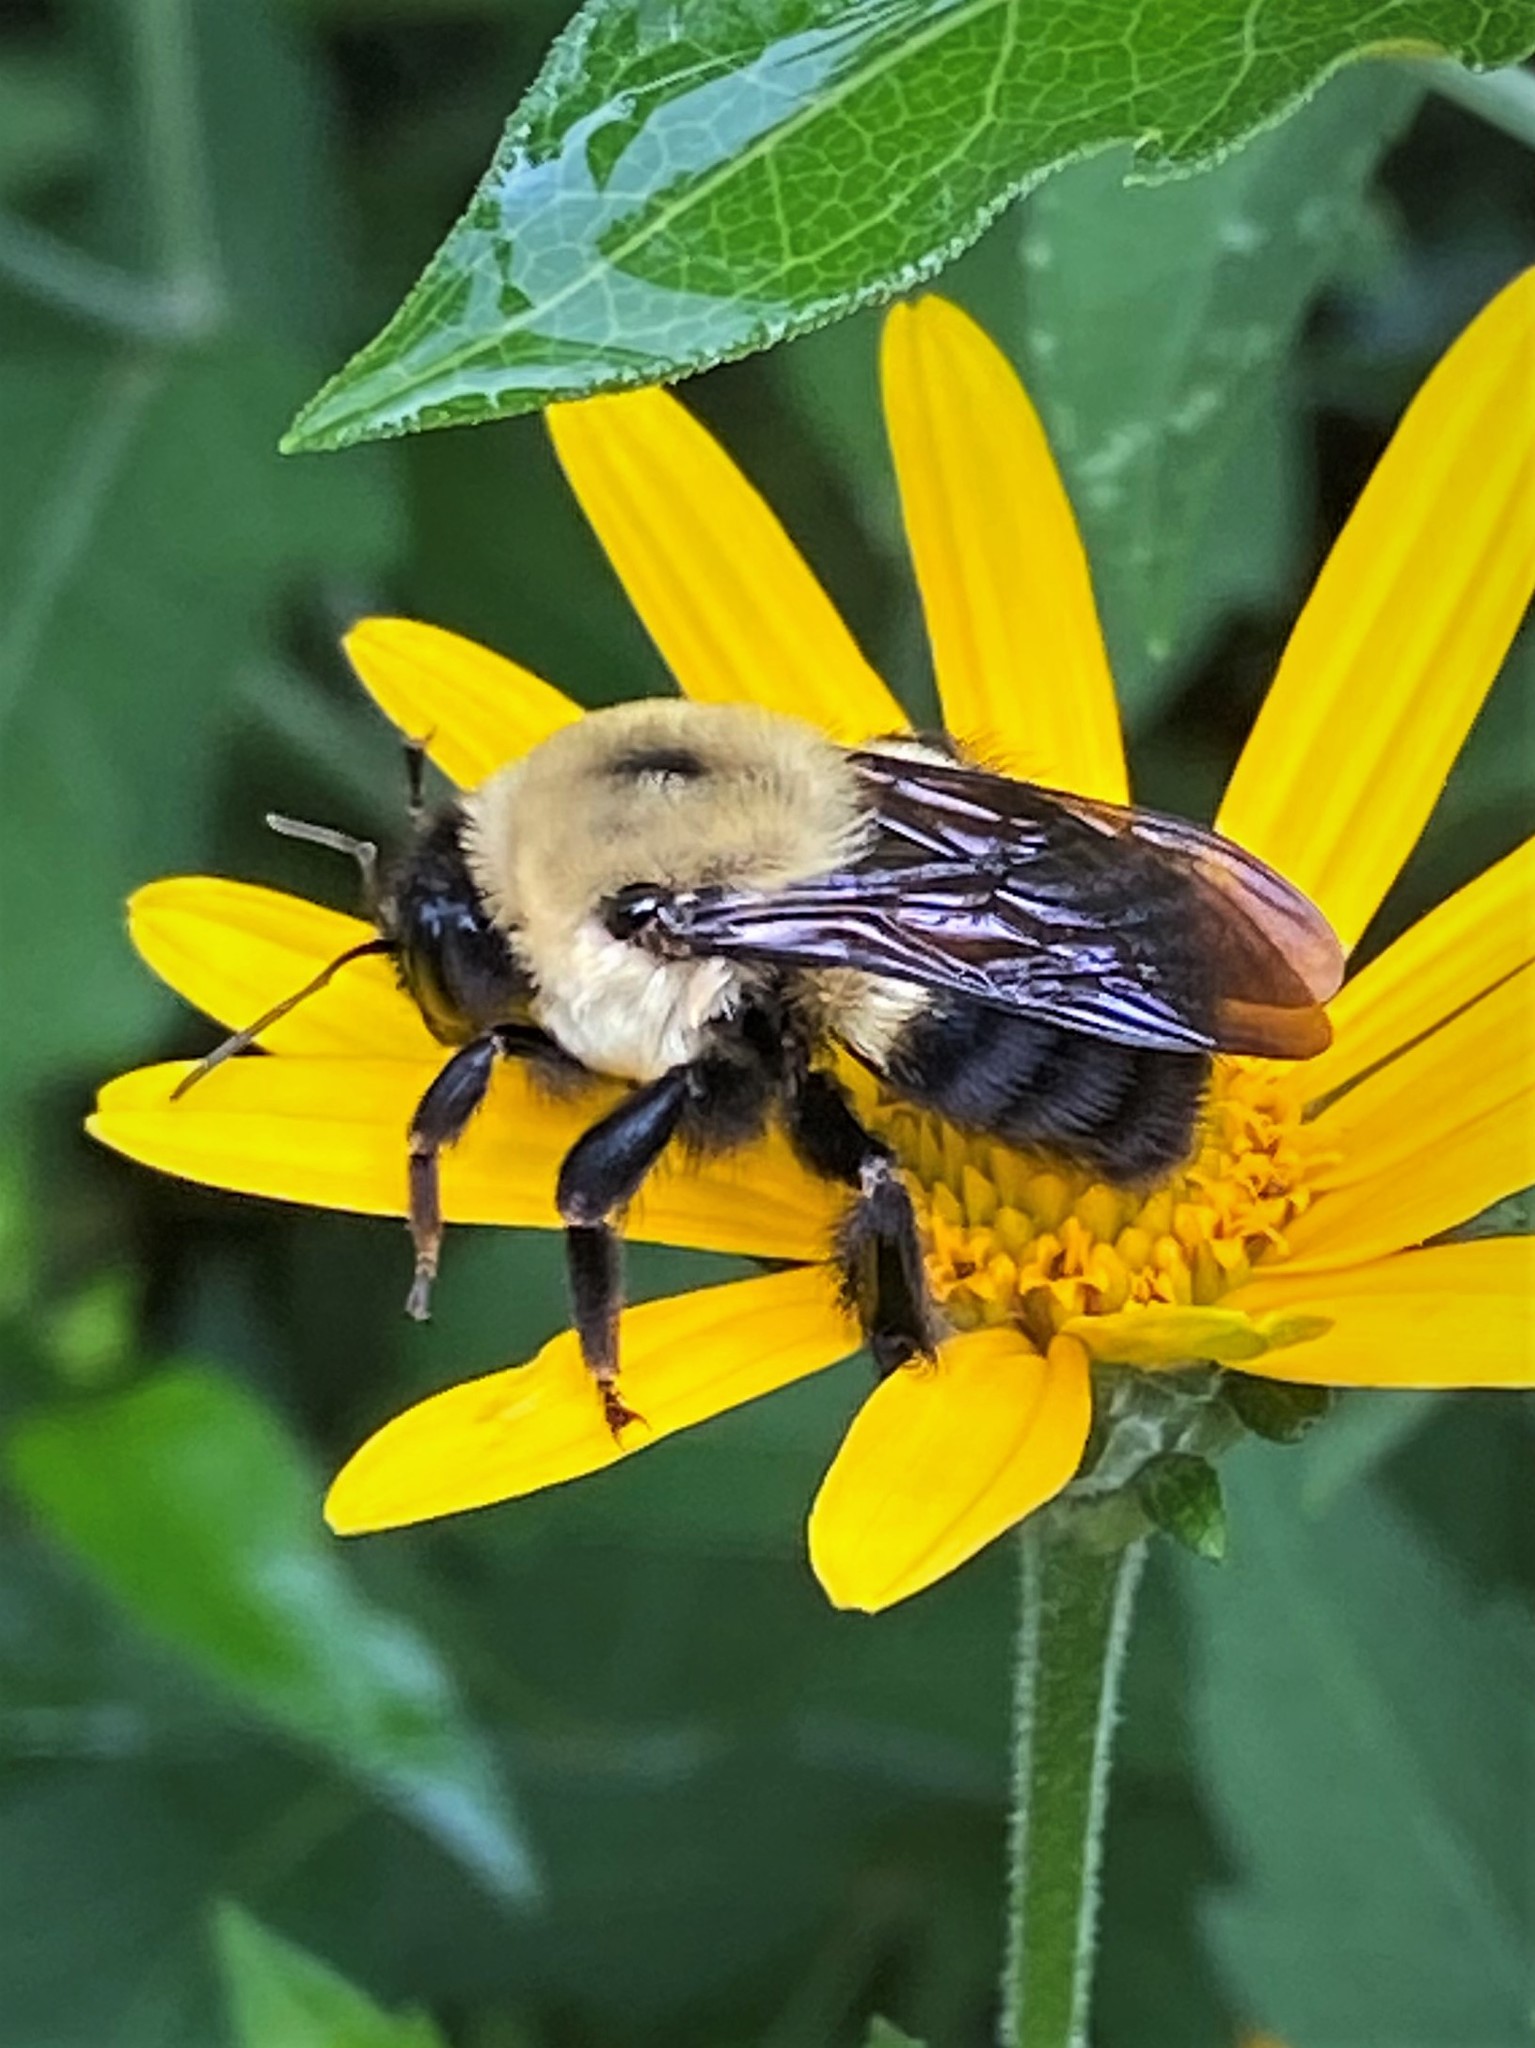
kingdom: Animalia
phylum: Arthropoda
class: Insecta
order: Hymenoptera
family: Apidae
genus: Bombus
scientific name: Bombus griseocollis
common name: Brown-belted bumble bee
